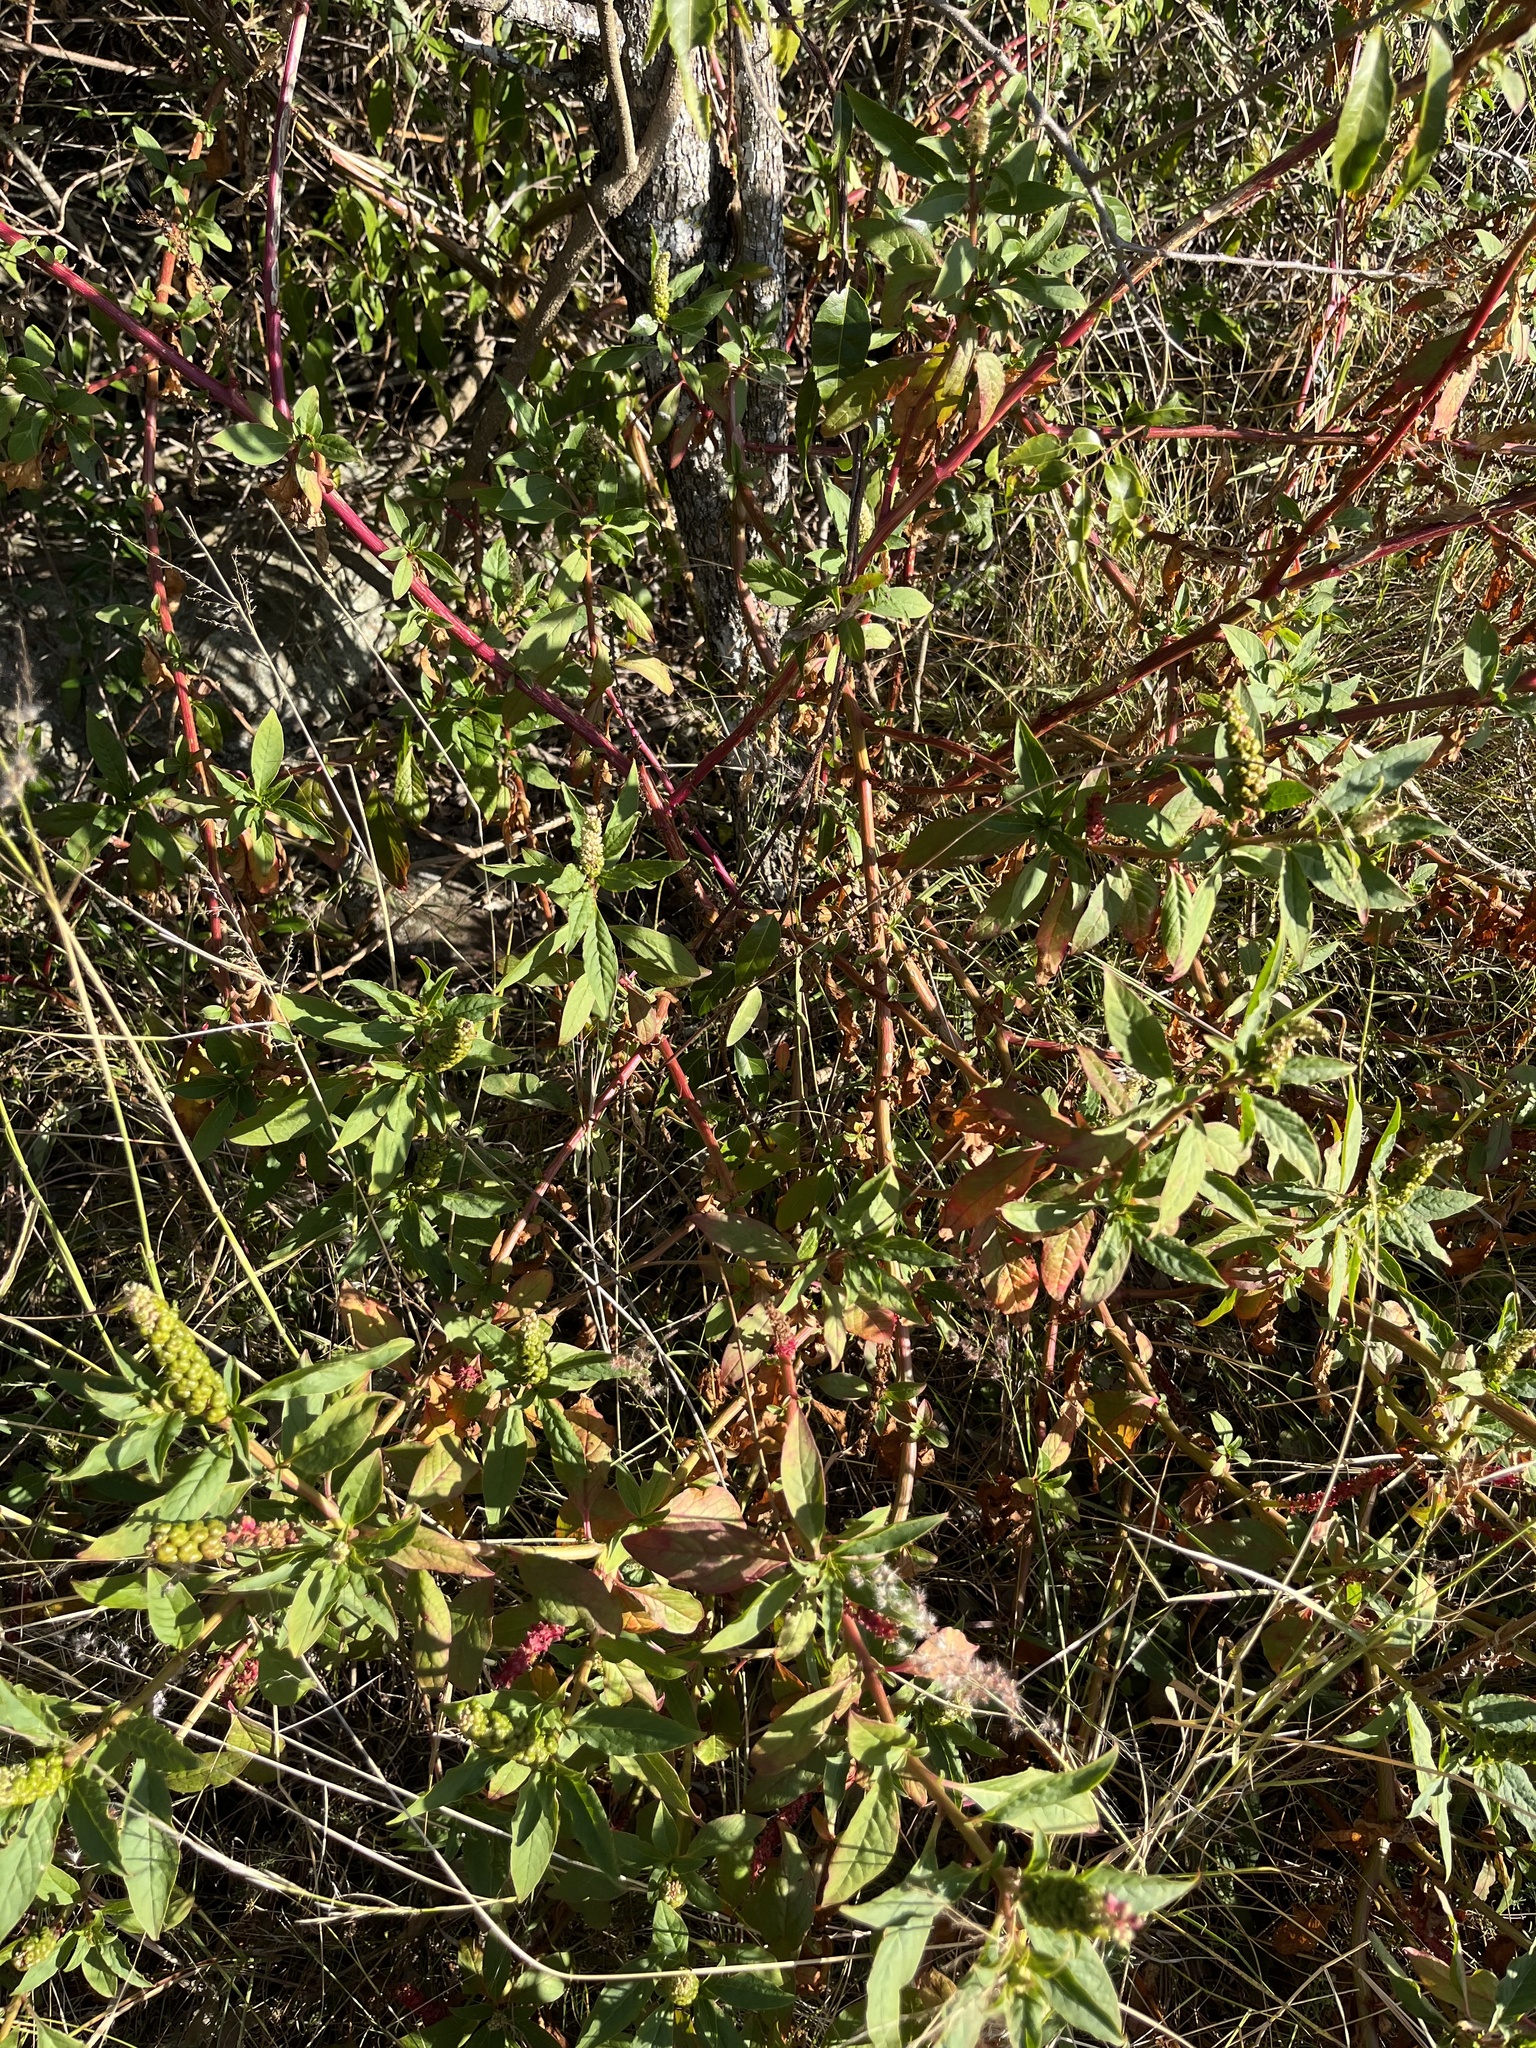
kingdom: Plantae
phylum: Tracheophyta
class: Magnoliopsida
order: Caryophyllales
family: Phytolaccaceae
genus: Phytolacca
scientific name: Phytolacca icosandra
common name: Button pokeweed
